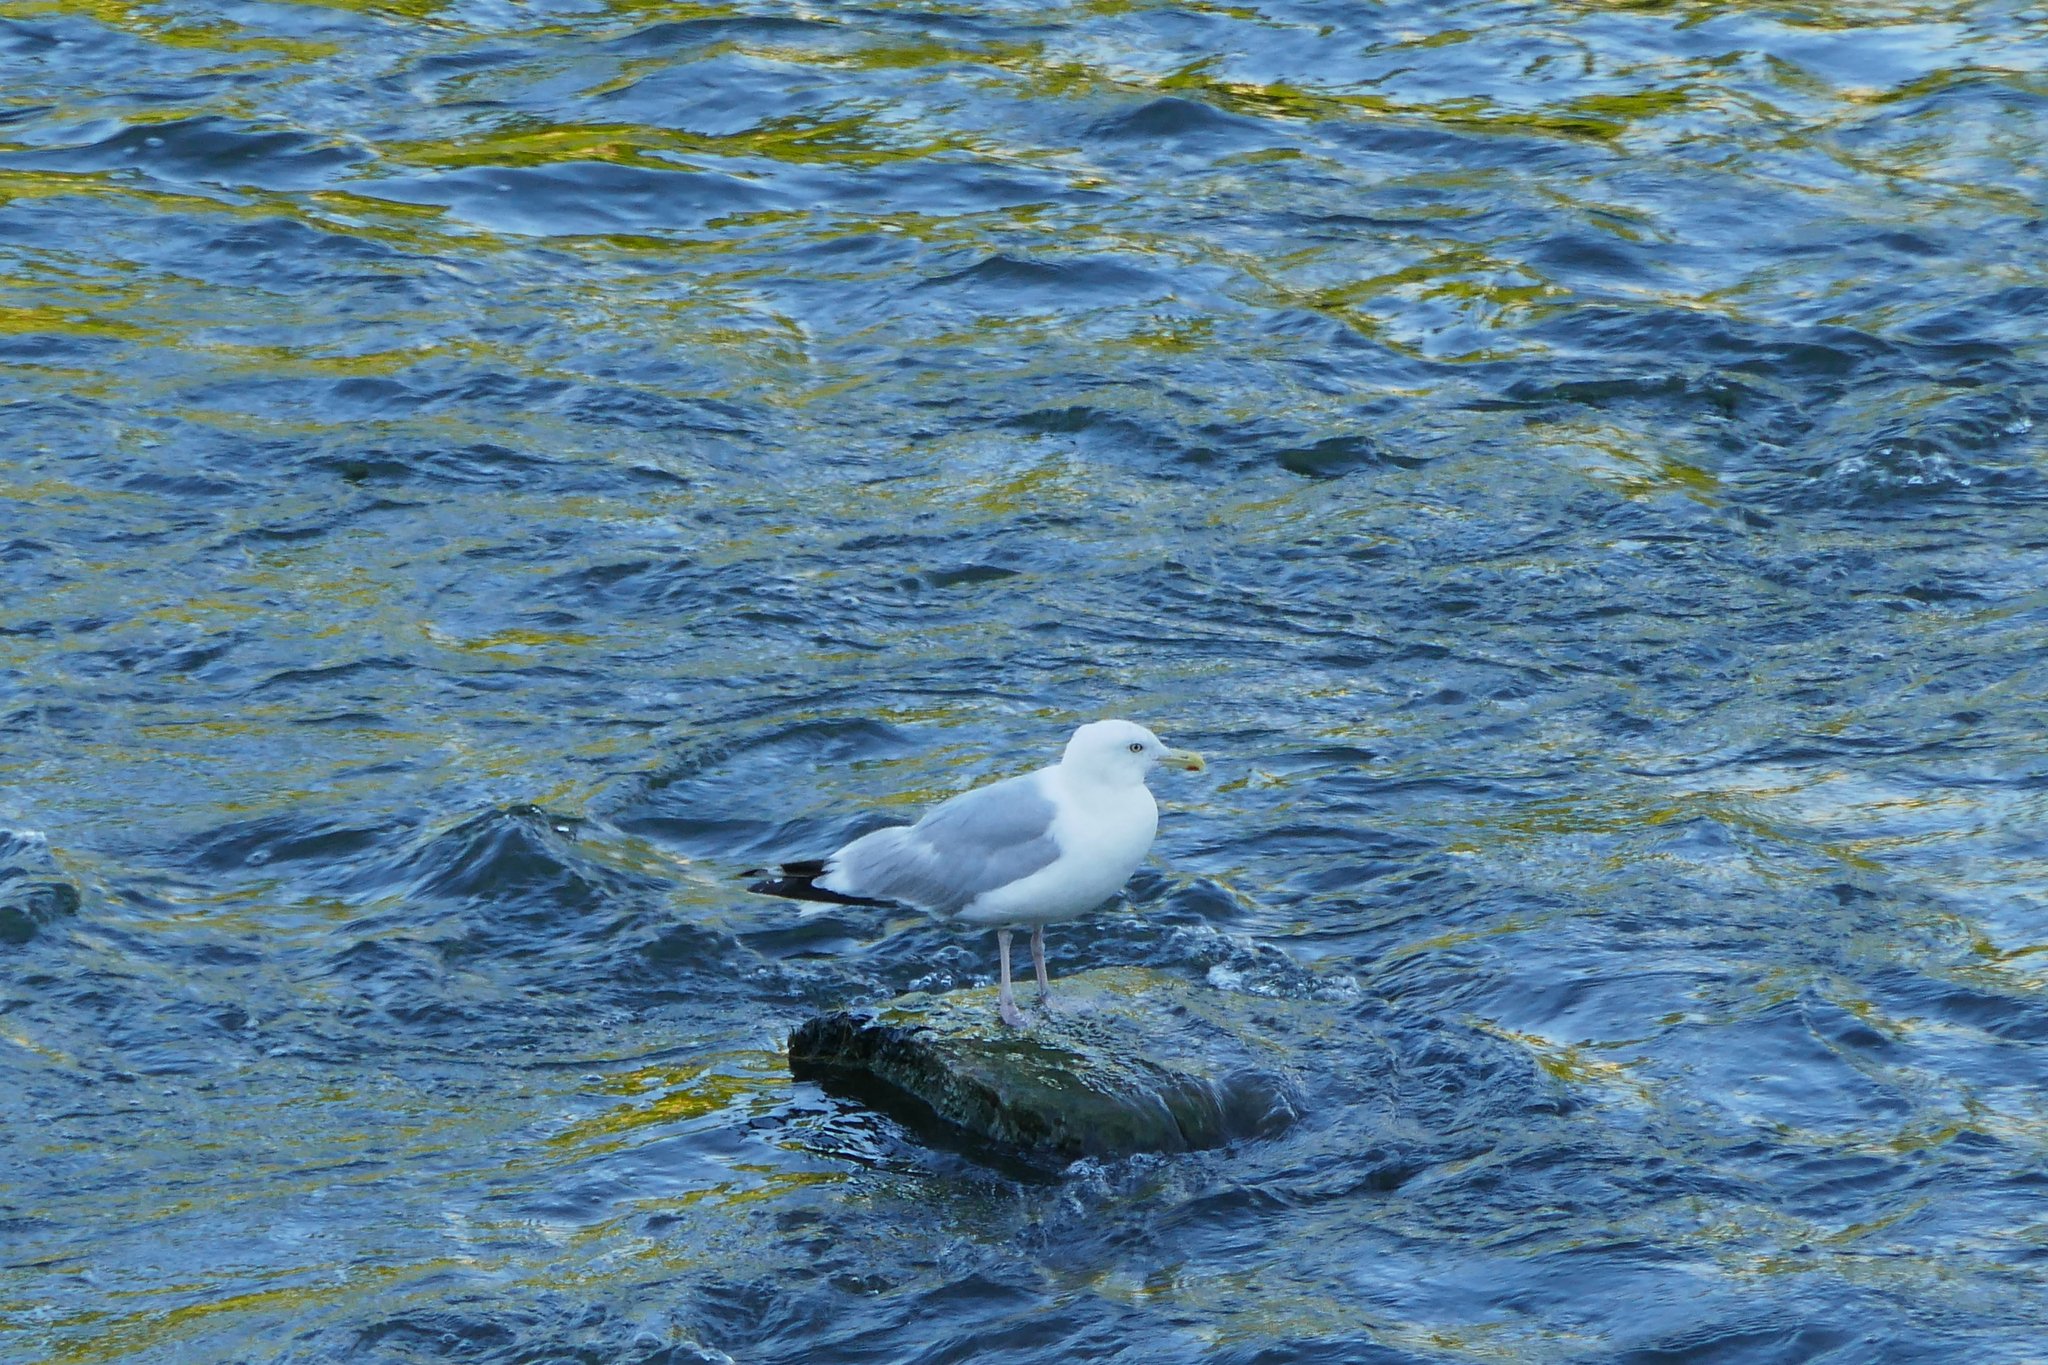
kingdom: Animalia
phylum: Chordata
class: Aves
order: Charadriiformes
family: Laridae
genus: Larus
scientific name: Larus argentatus
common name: Herring gull
